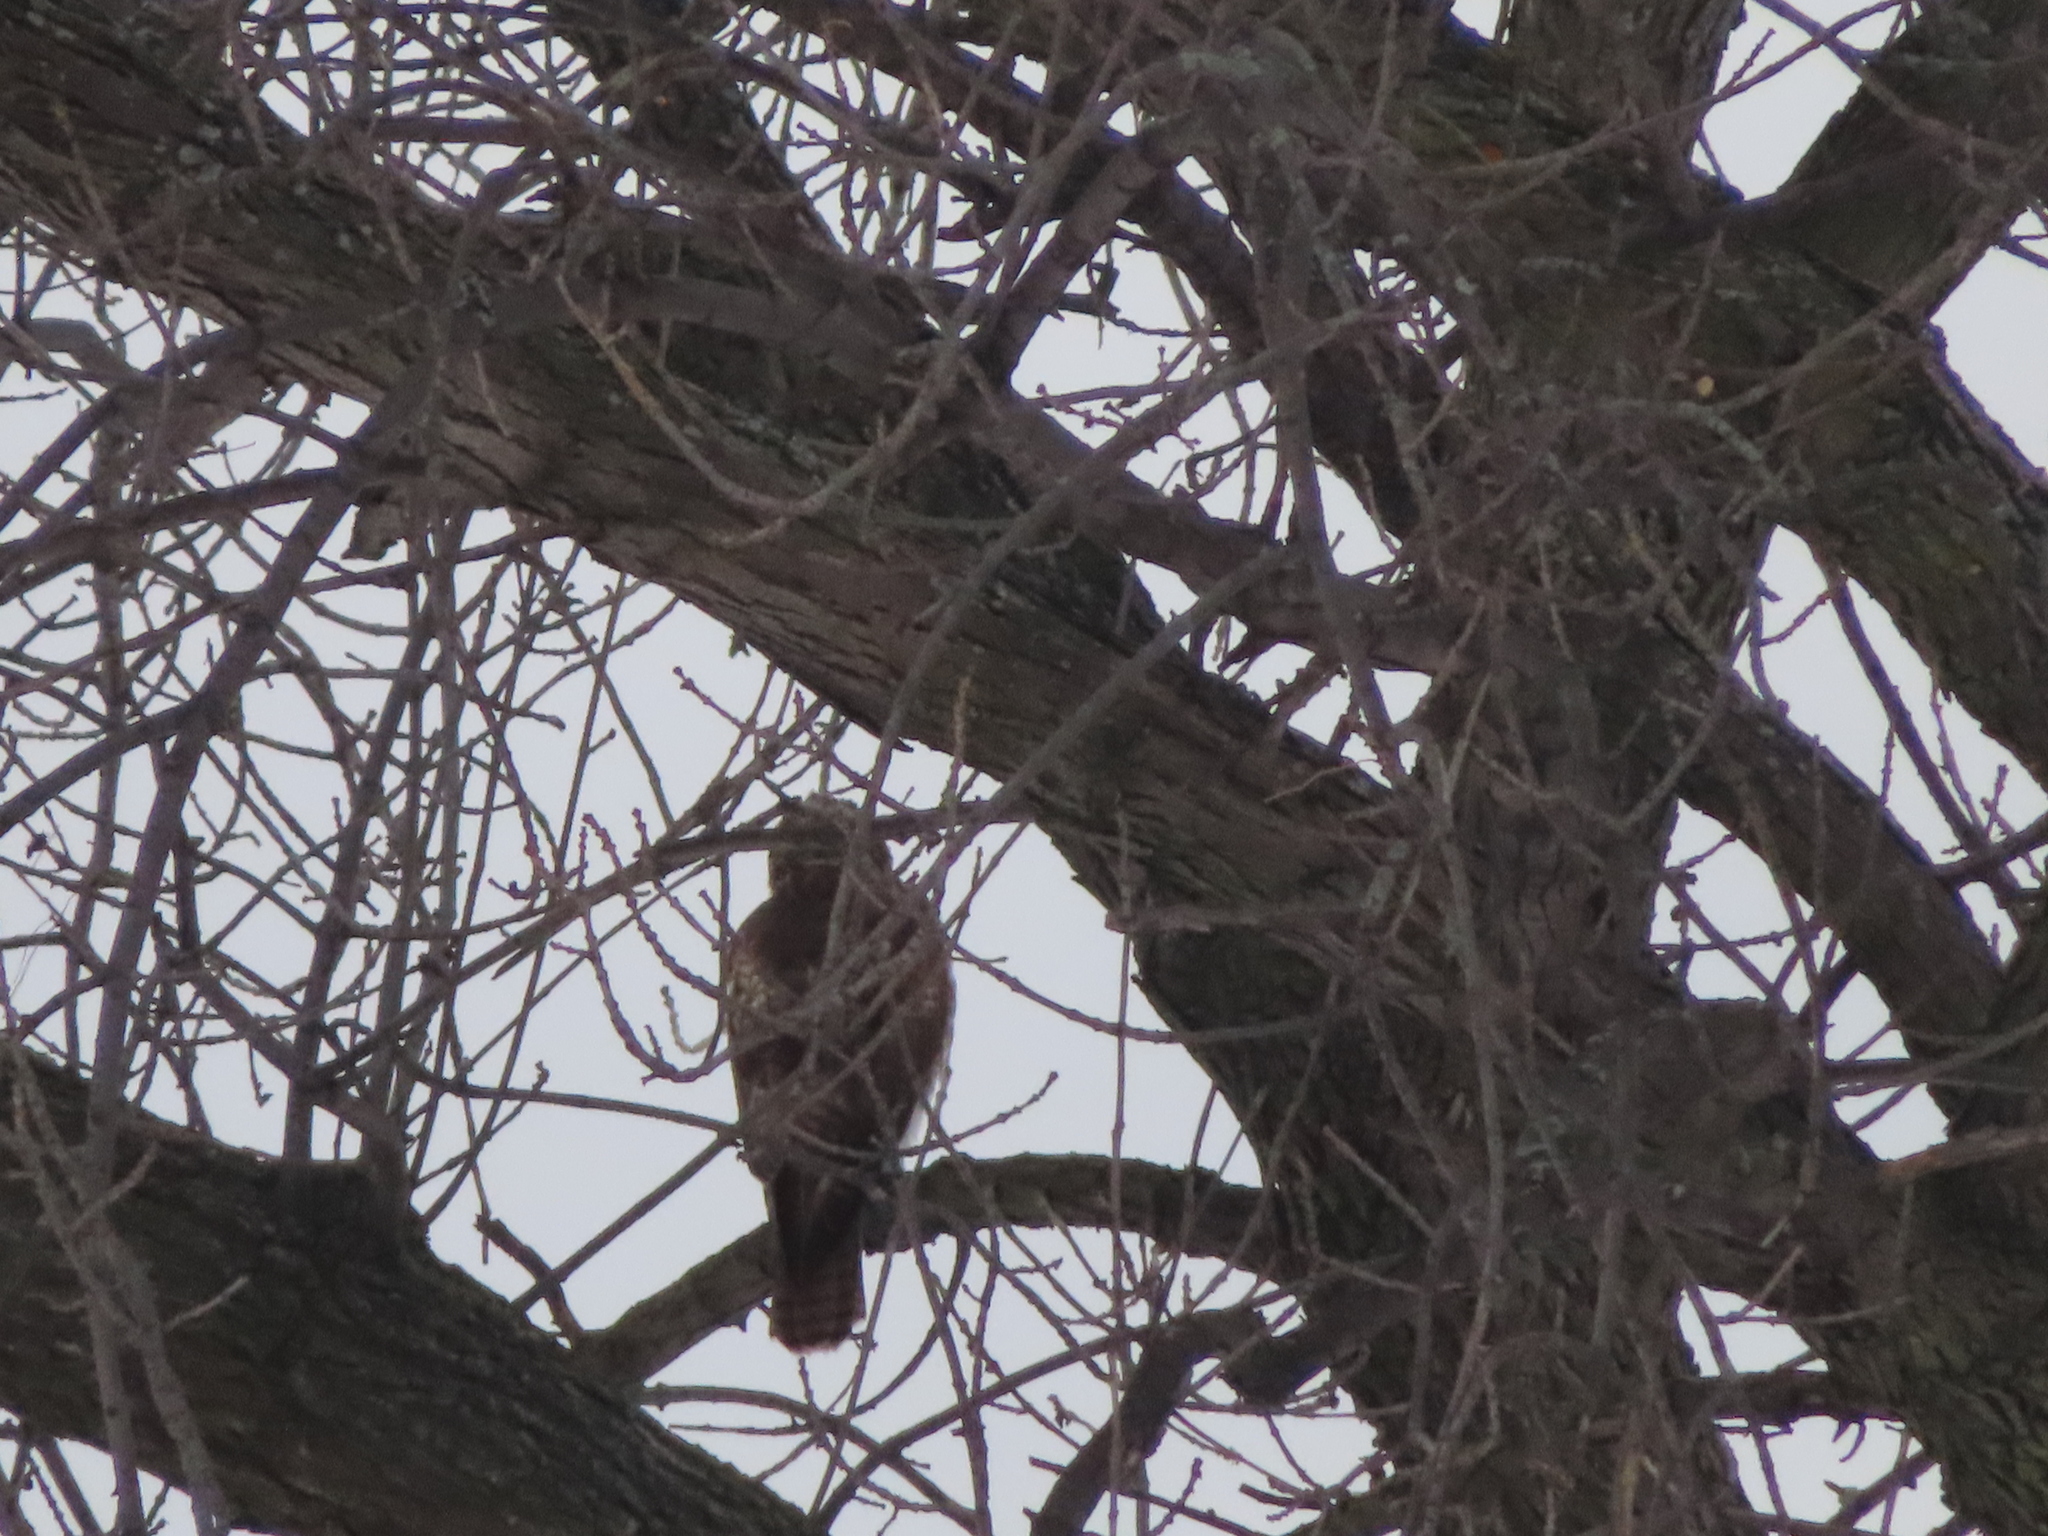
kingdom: Animalia
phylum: Chordata
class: Aves
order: Accipitriformes
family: Accipitridae
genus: Buteo
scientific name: Buteo jamaicensis
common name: Red-tailed hawk
